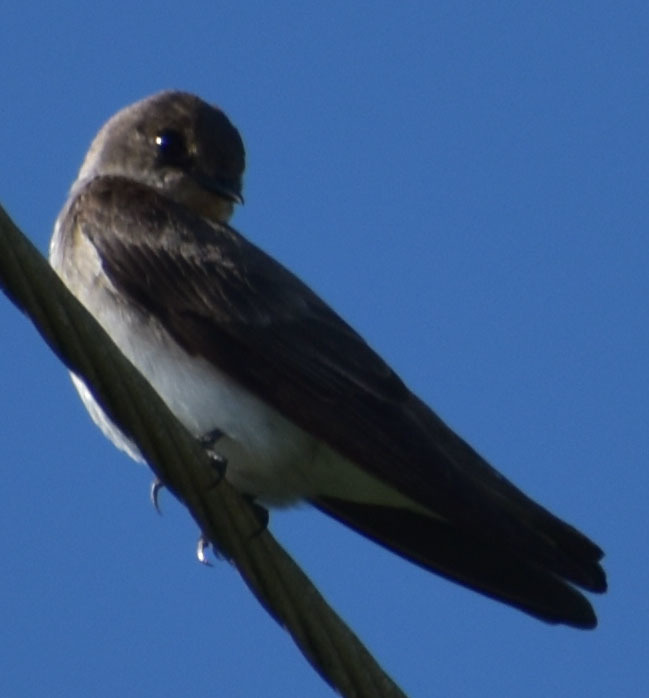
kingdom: Animalia
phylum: Chordata
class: Aves
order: Passeriformes
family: Hirundinidae
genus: Stelgidopteryx
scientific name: Stelgidopteryx serripennis
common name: Northern rough-winged swallow
